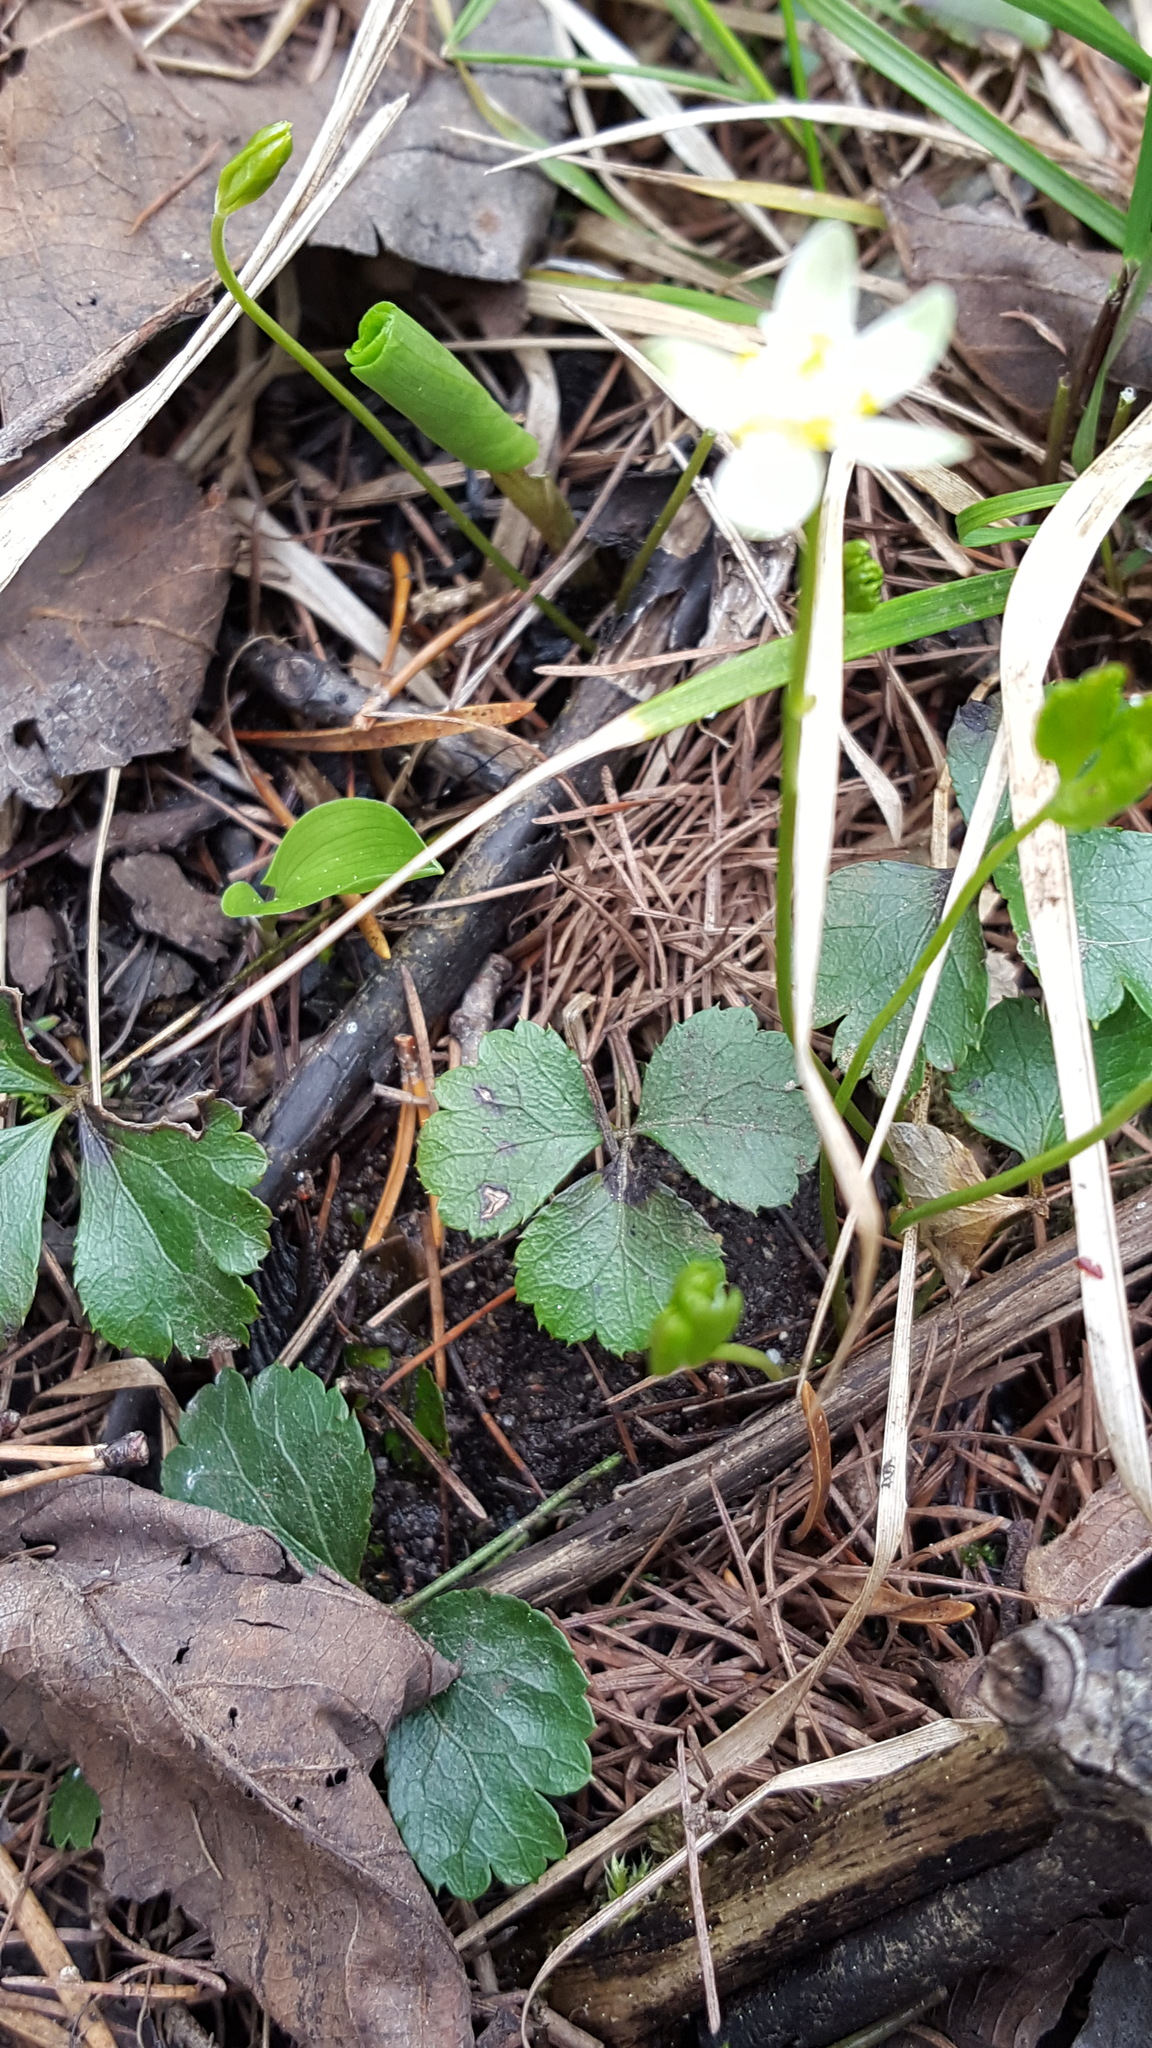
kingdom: Plantae
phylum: Tracheophyta
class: Magnoliopsida
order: Ranunculales
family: Ranunculaceae
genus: Coptis
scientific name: Coptis trifolia
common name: Canker-root
